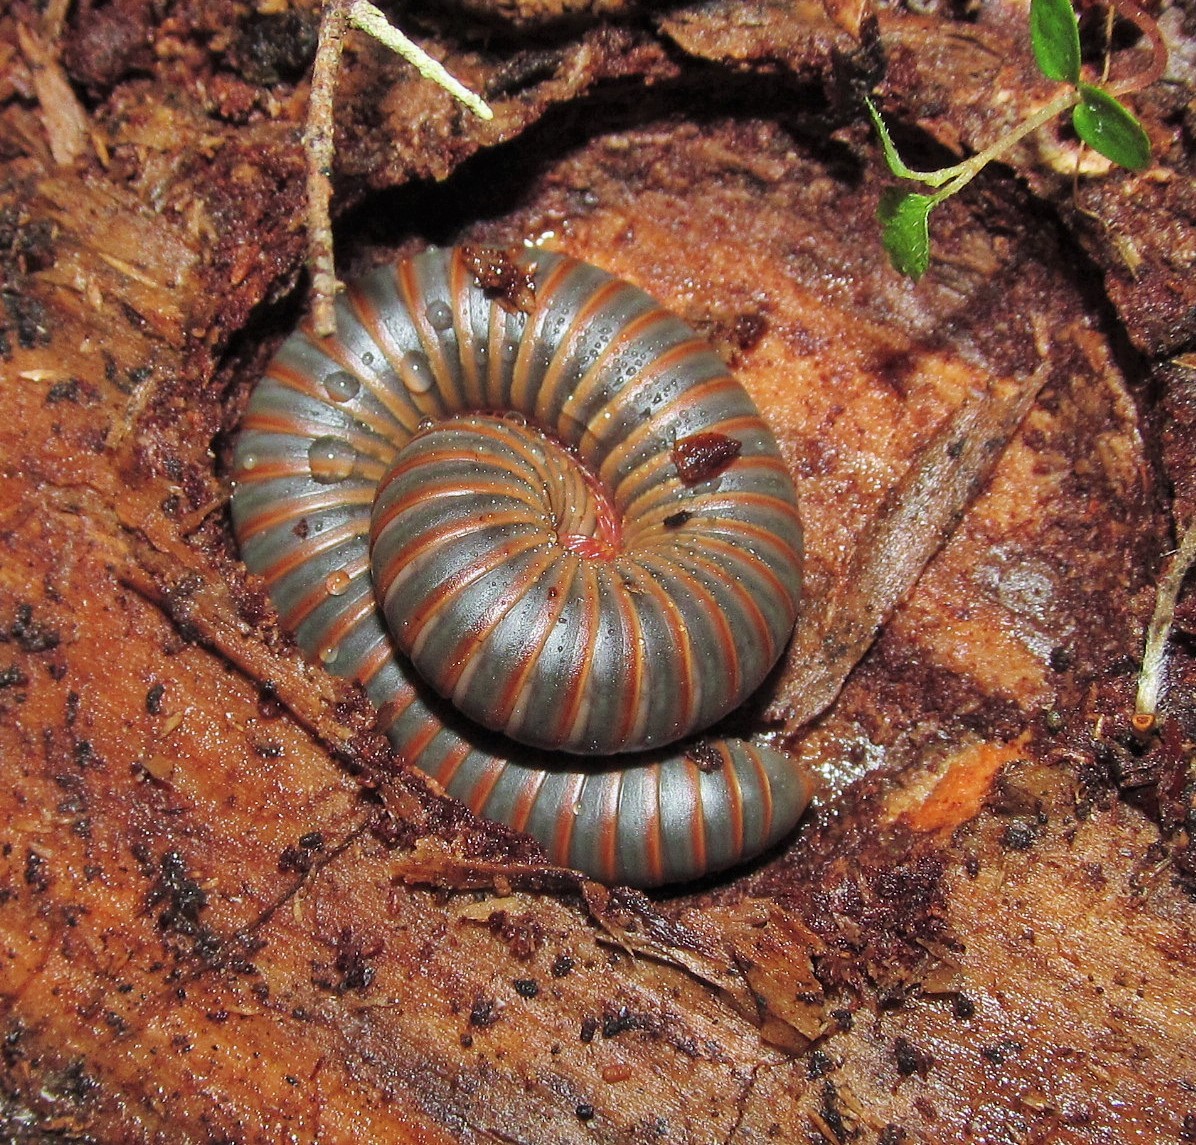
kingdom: Animalia
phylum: Arthropoda
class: Diplopoda
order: Spirobolida
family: Spirobolidae
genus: Narceus
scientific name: Narceus
